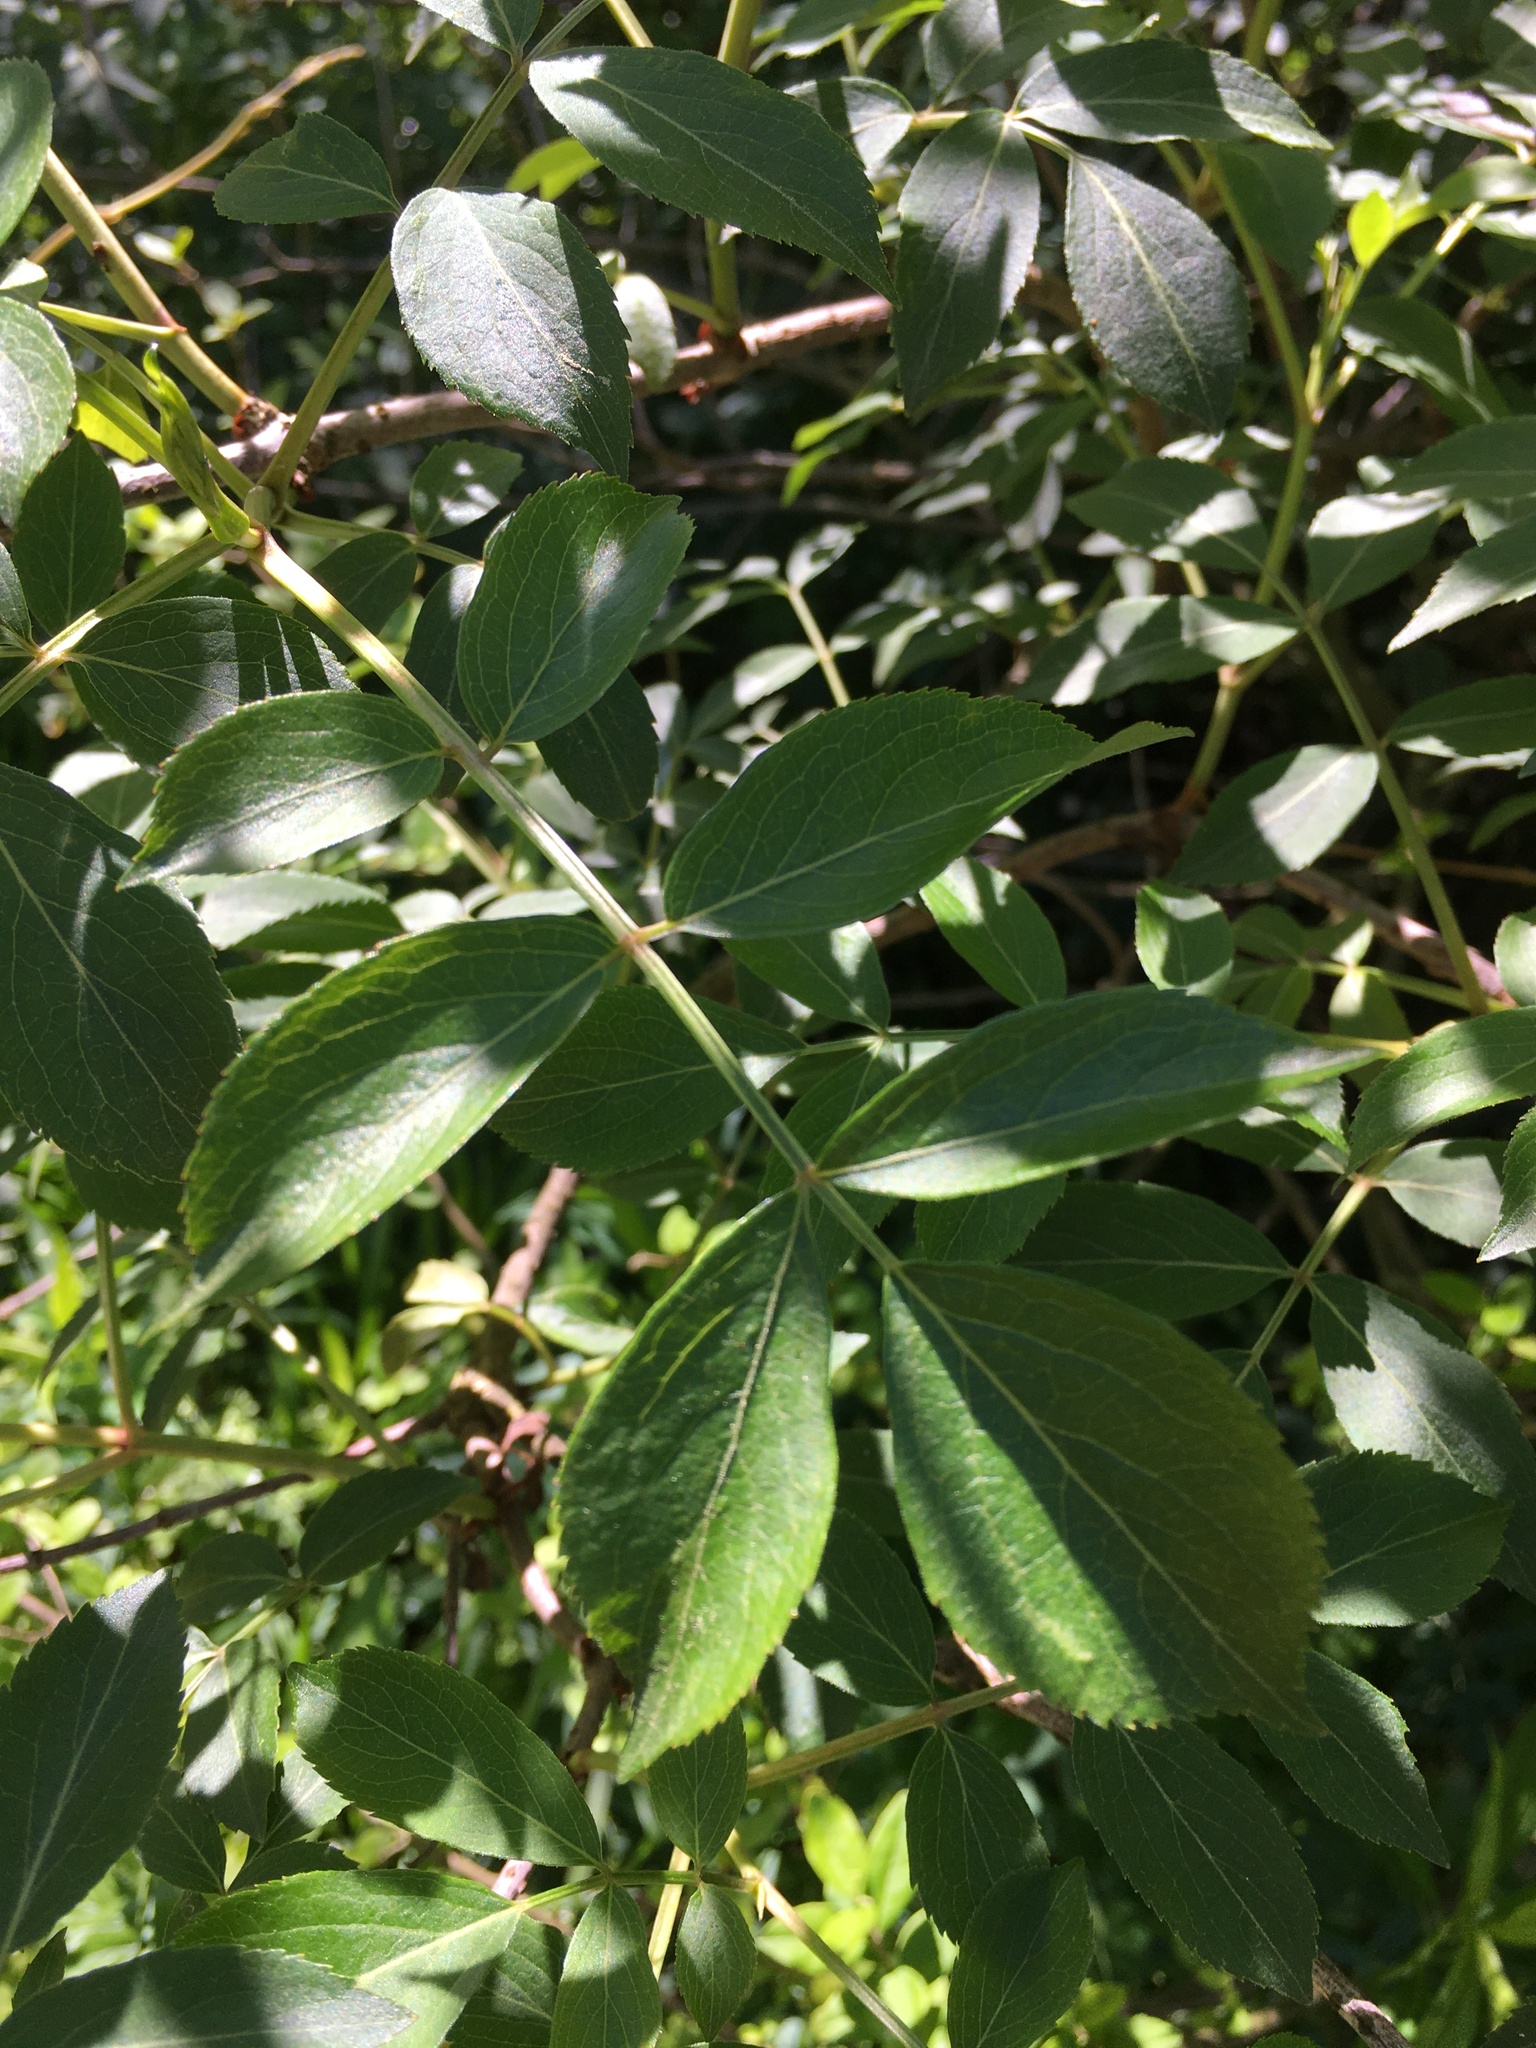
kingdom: Plantae
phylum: Tracheophyta
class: Magnoliopsida
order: Dipsacales
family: Viburnaceae
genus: Sambucus
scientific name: Sambucus canadensis
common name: American elder
